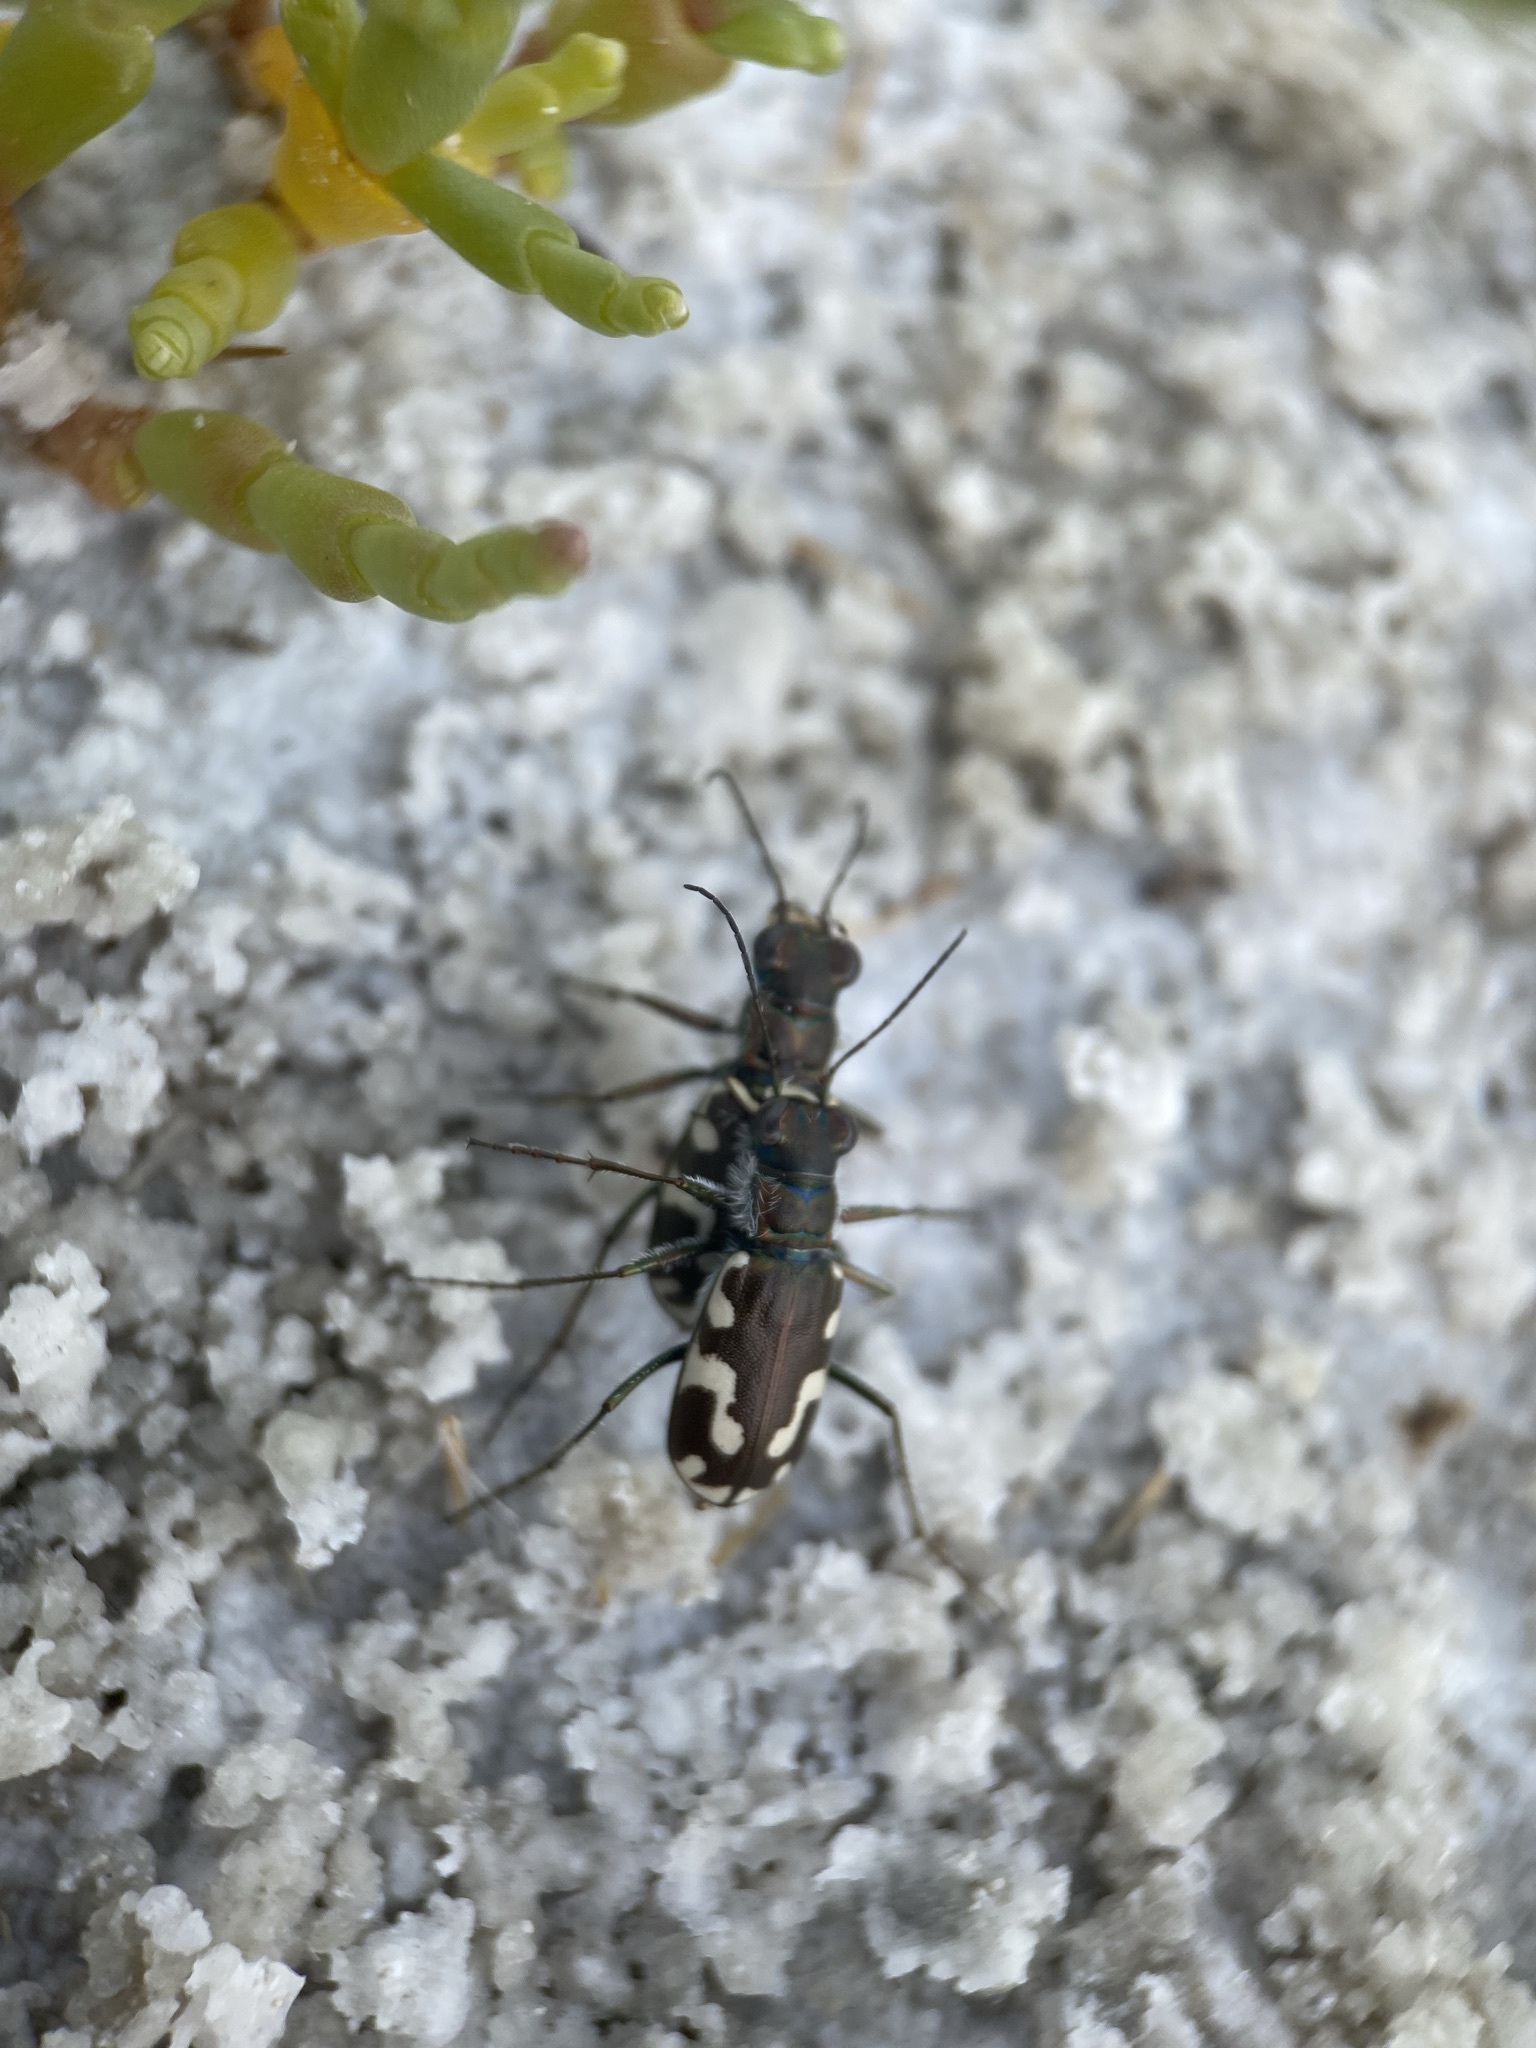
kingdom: Animalia
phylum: Arthropoda
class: Insecta
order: Coleoptera
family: Carabidae
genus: Cicindela
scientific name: Cicindela willistoni
